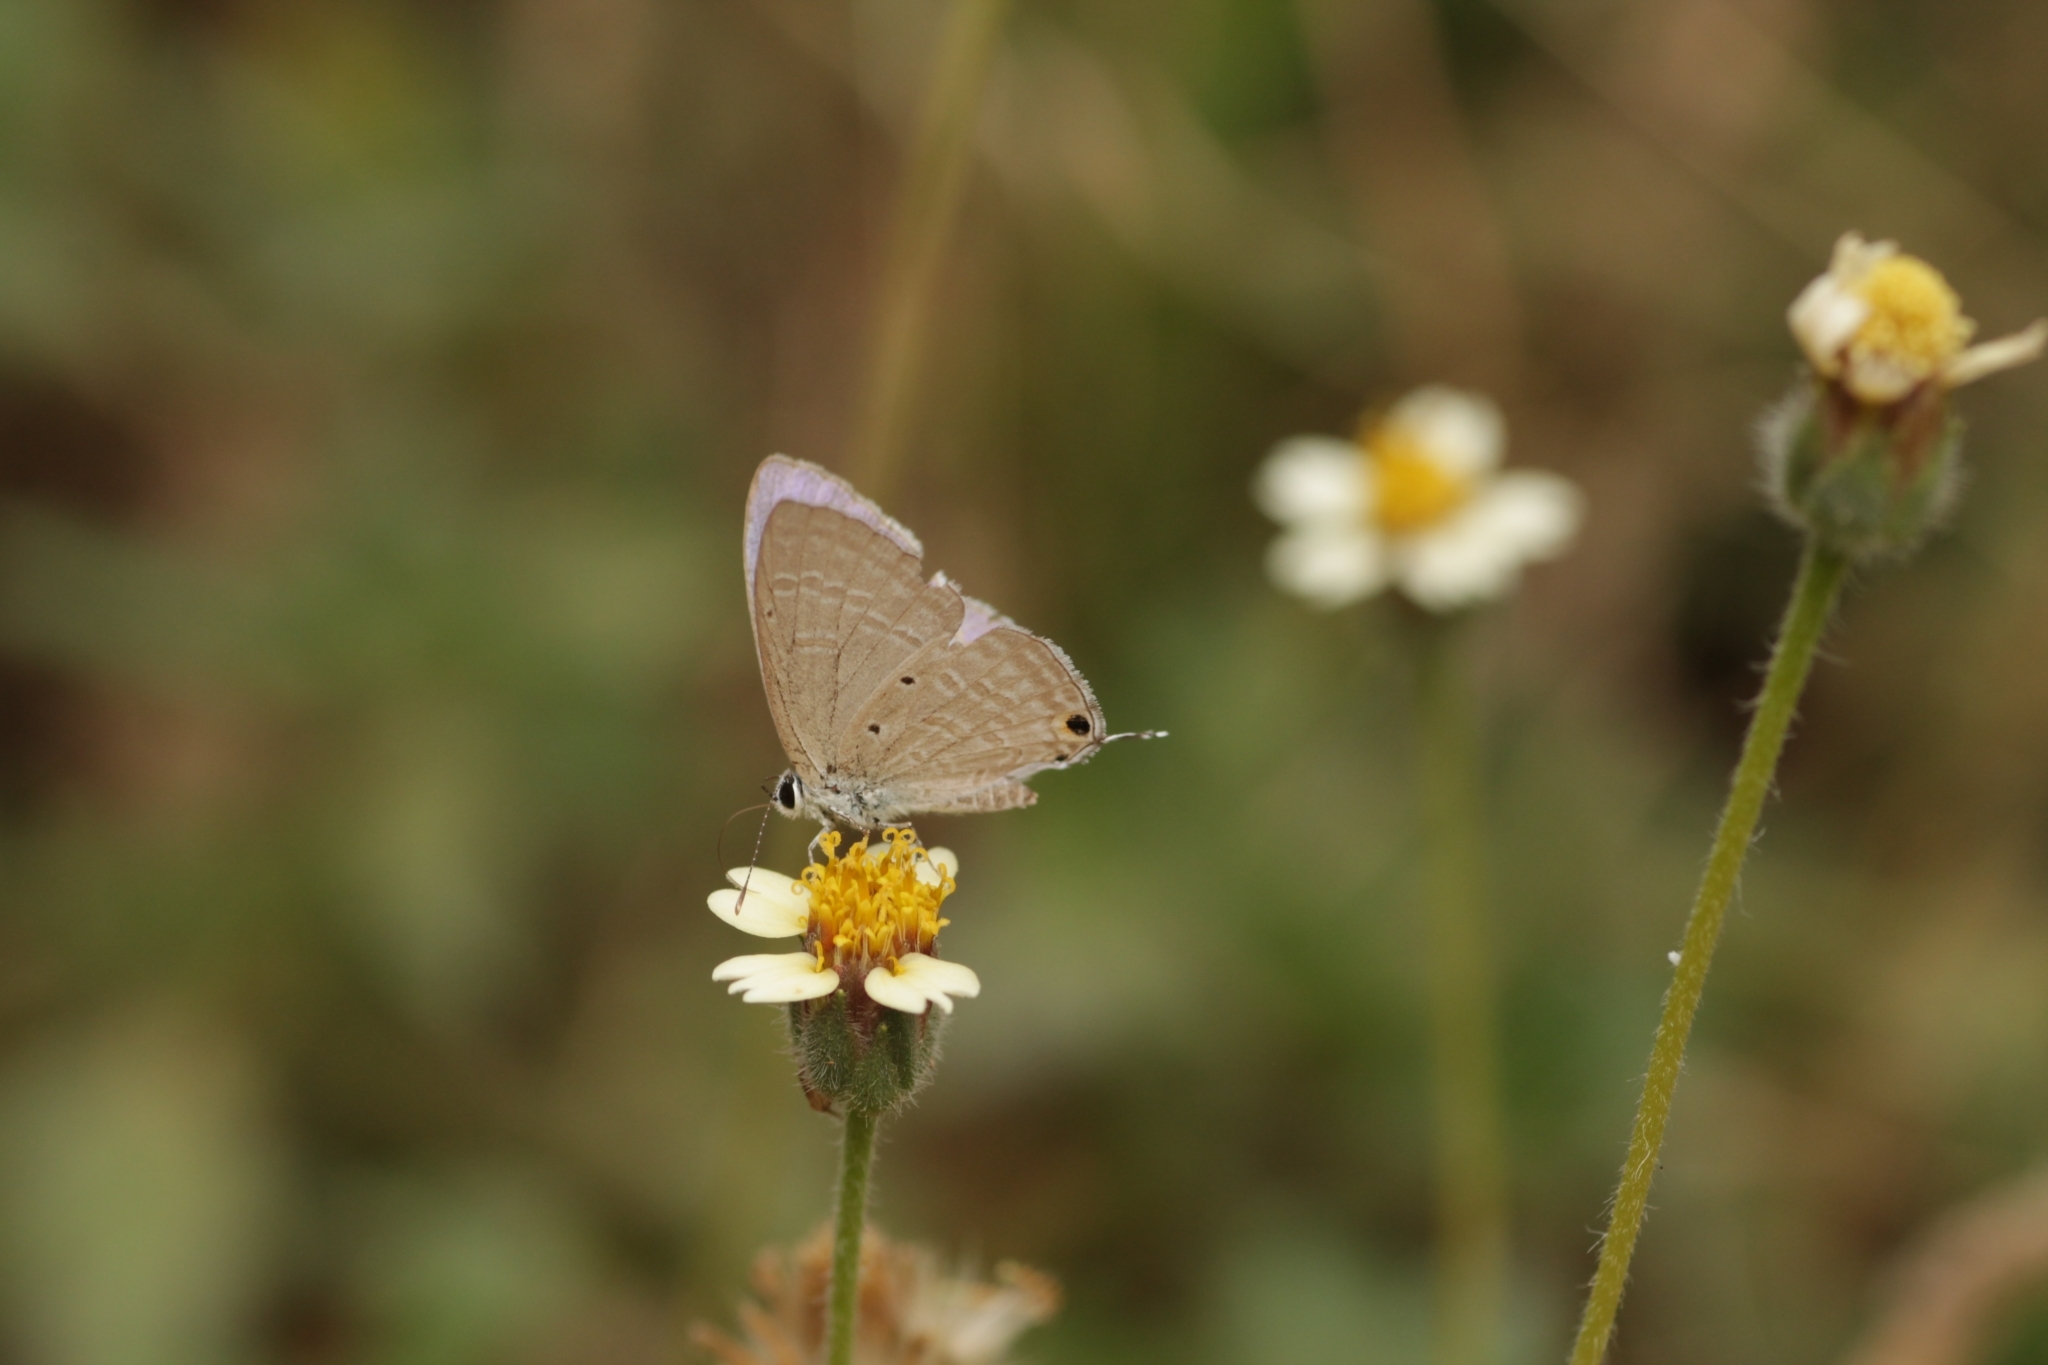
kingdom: Animalia
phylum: Arthropoda
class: Insecta
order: Lepidoptera
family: Lycaenidae
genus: Catochrysops
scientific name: Catochrysops strabo
